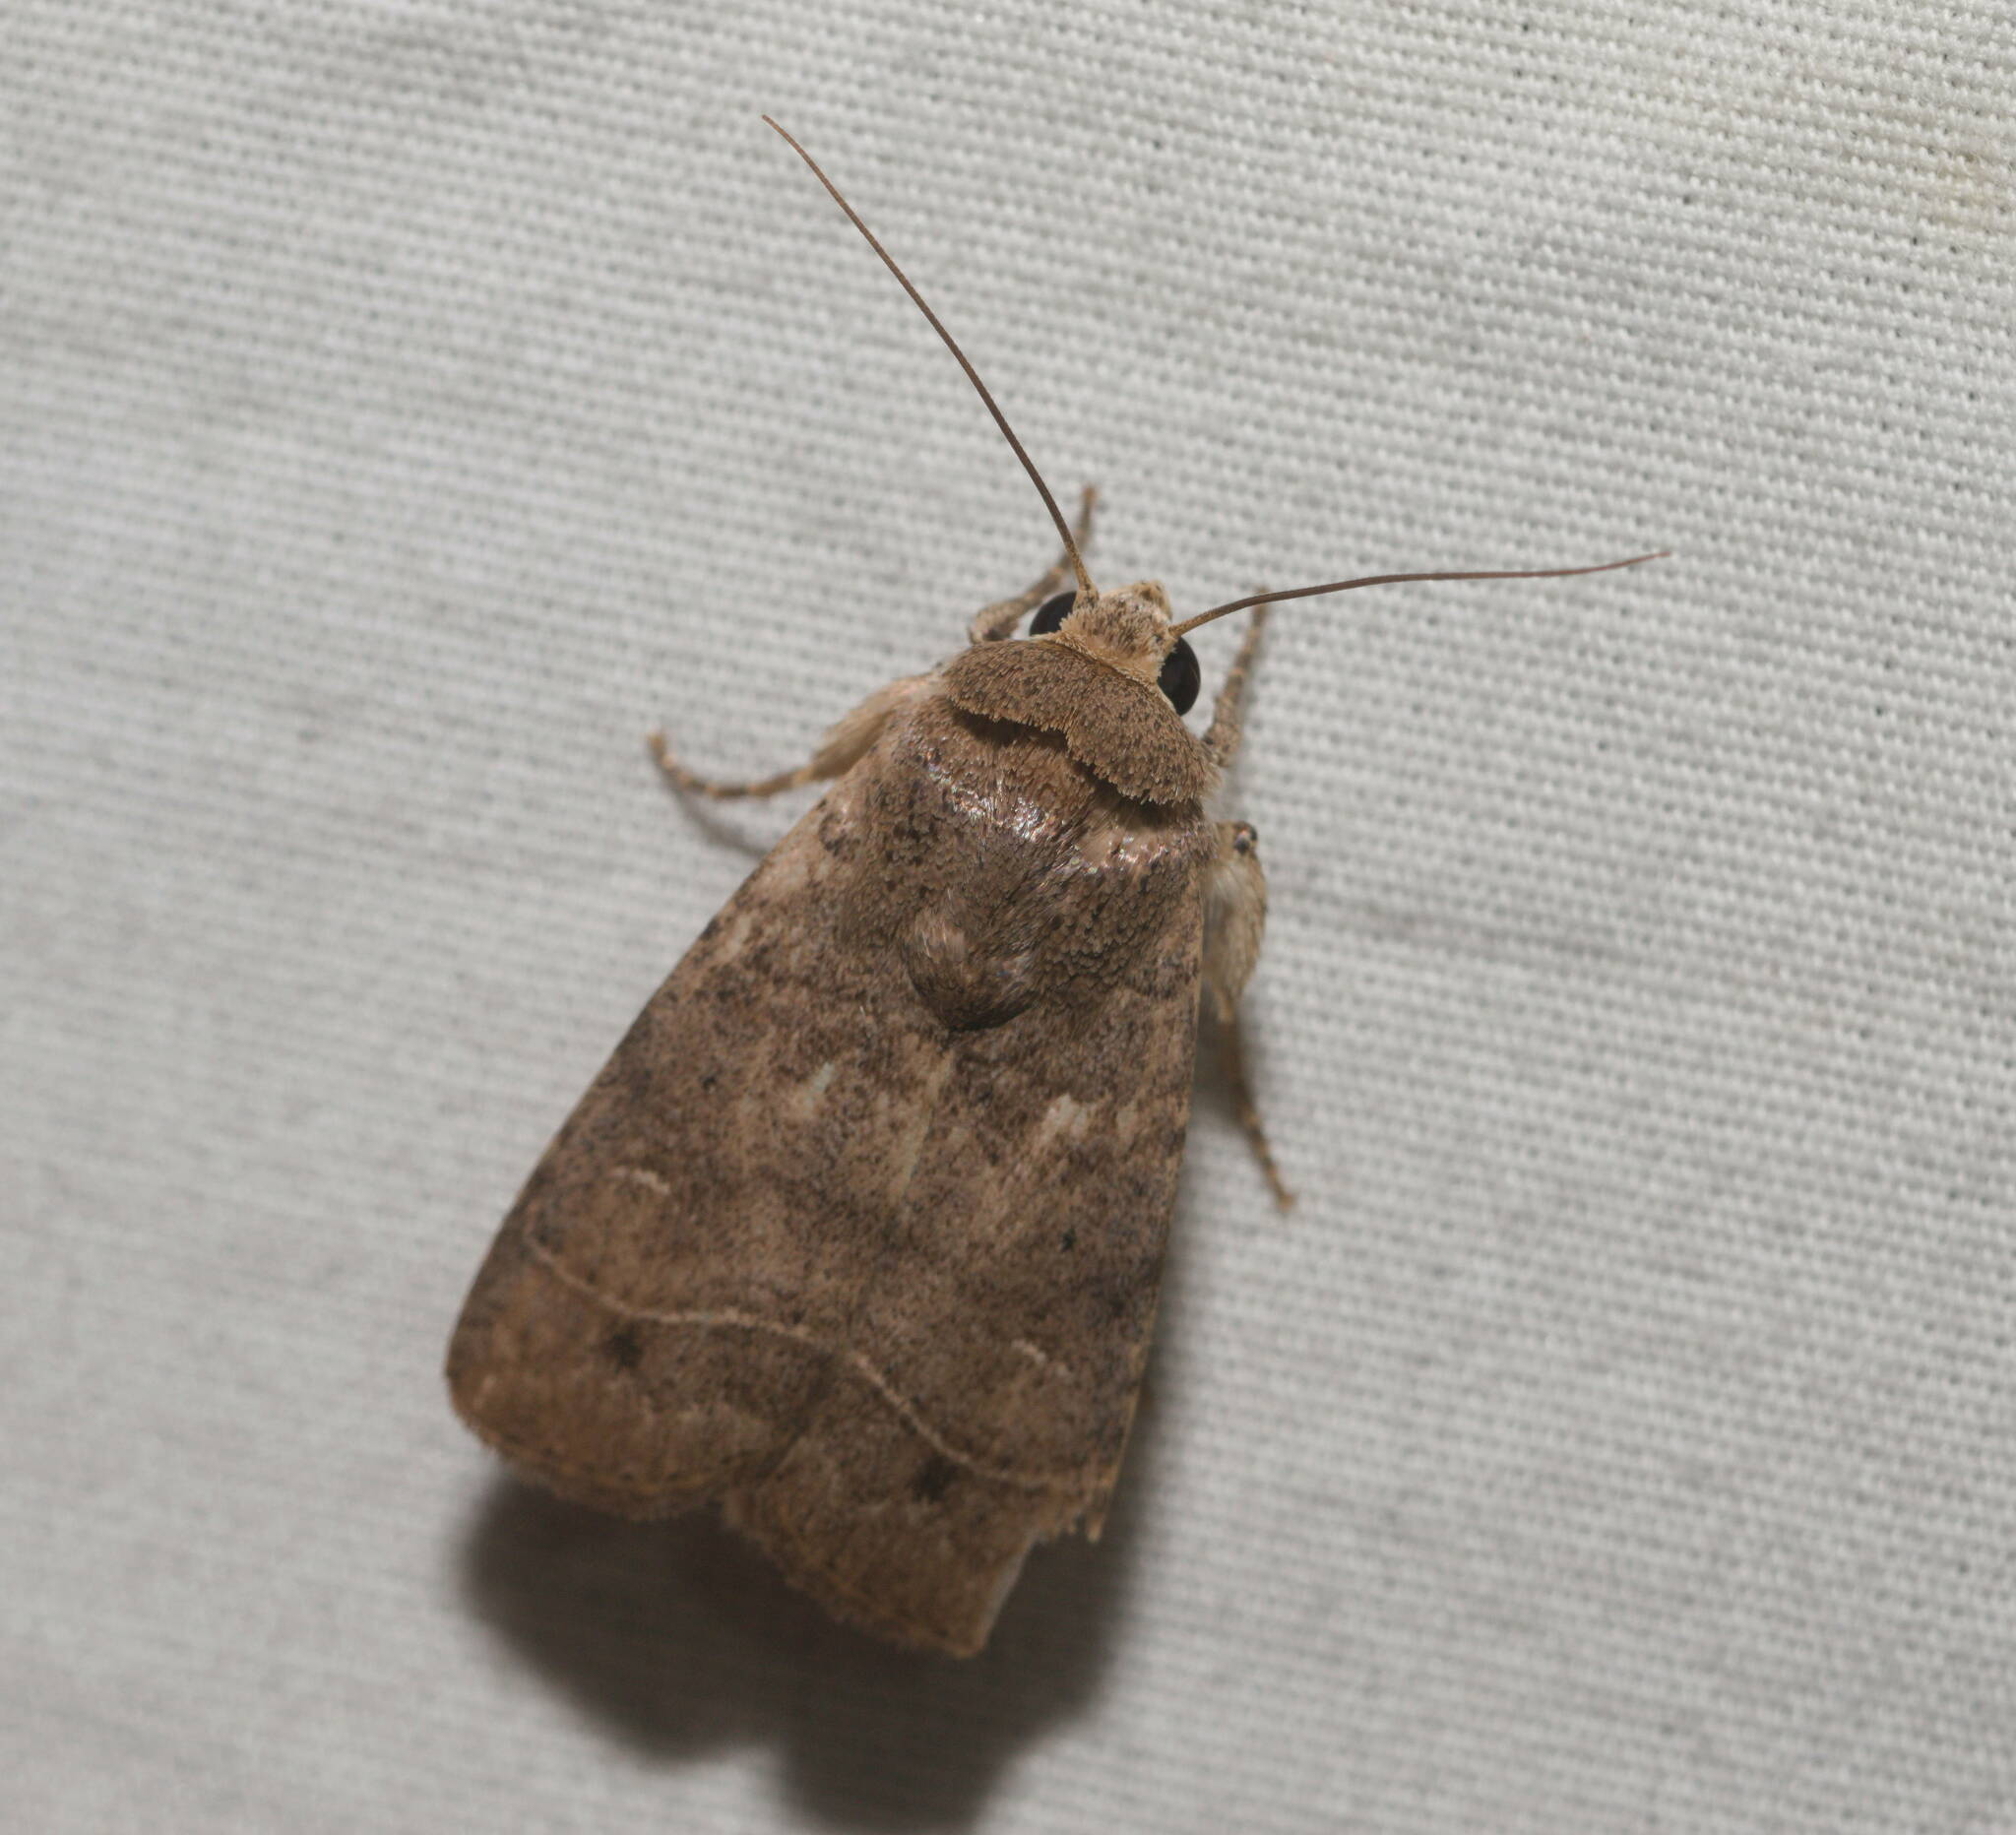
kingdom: Animalia
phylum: Arthropoda
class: Insecta
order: Lepidoptera
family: Noctuidae
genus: Athetis
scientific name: Athetis thoracica
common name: Cutworm
